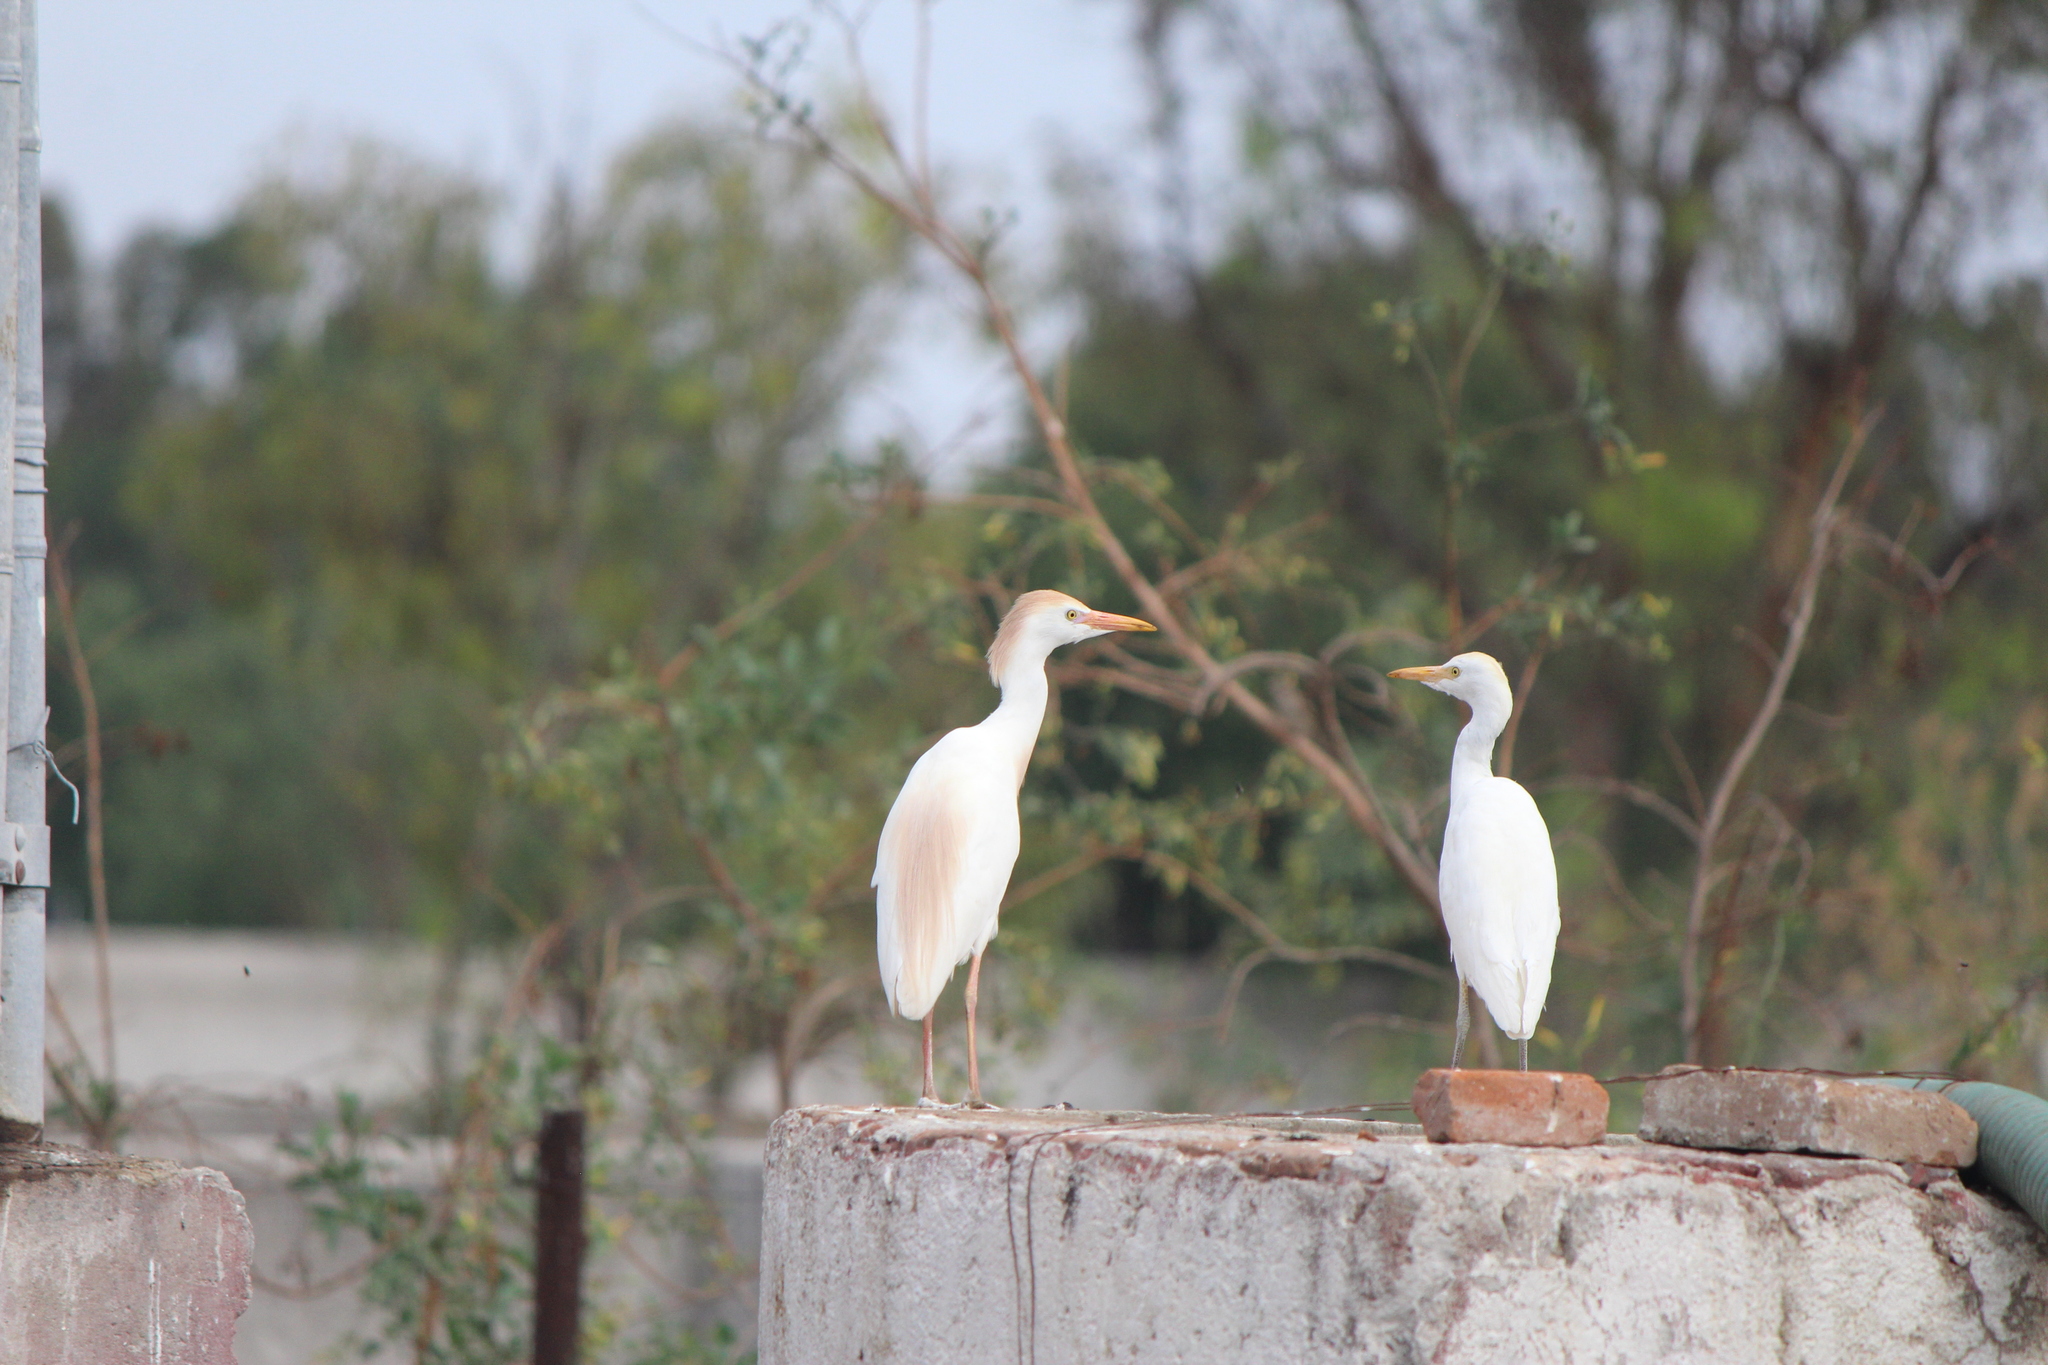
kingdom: Animalia
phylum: Chordata
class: Aves
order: Pelecaniformes
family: Ardeidae
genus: Bubulcus
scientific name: Bubulcus ibis
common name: Cattle egret
